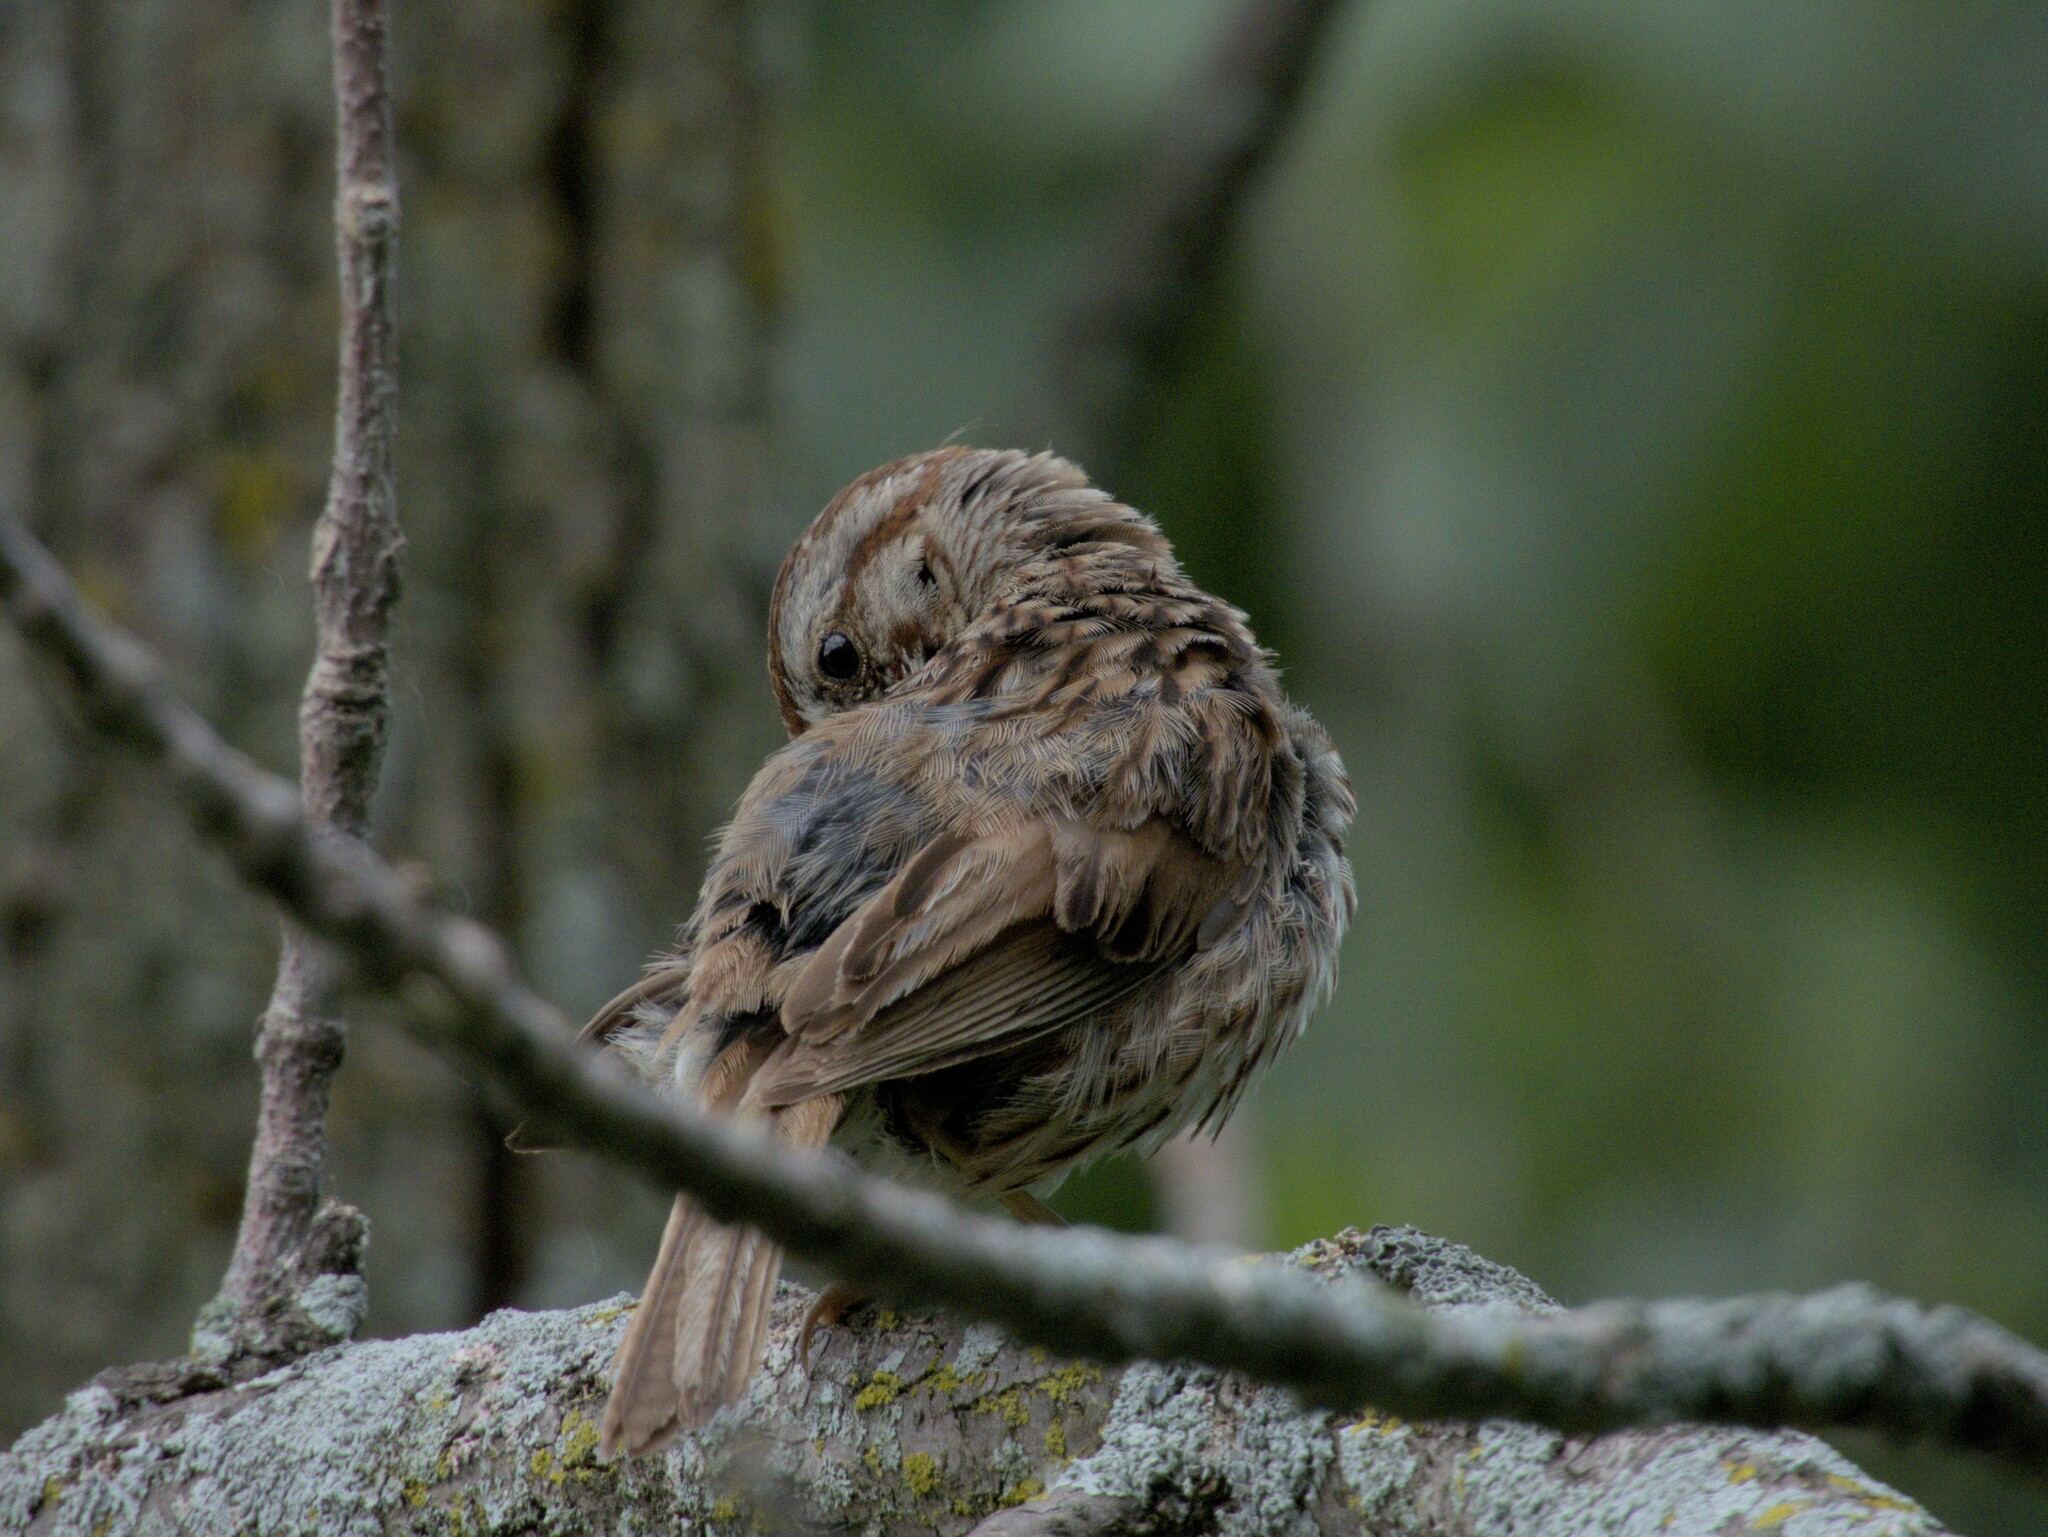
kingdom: Animalia
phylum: Chordata
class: Aves
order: Passeriformes
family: Passerellidae
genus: Melospiza
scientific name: Melospiza melodia
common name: Song sparrow
